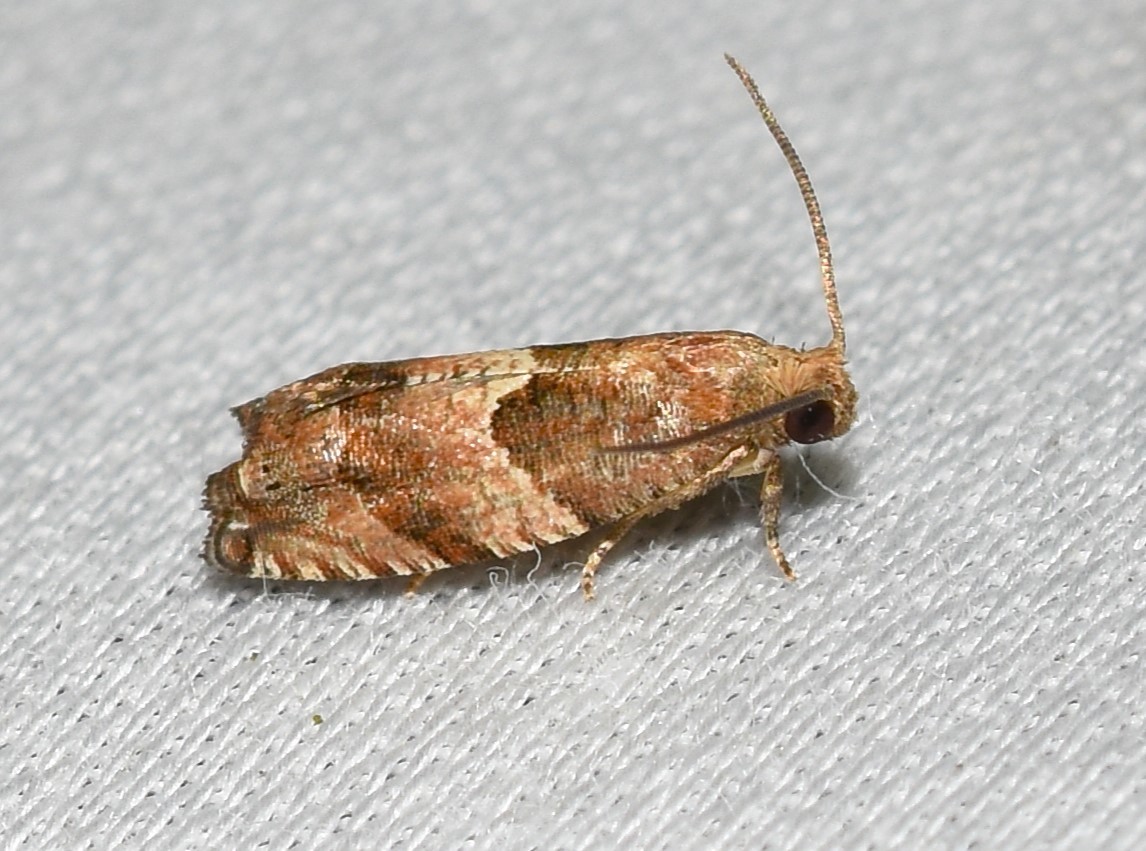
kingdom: Animalia
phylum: Arthropoda
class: Insecta
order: Lepidoptera
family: Tortricidae
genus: Gypsonoma
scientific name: Gypsonoma salicicolana
